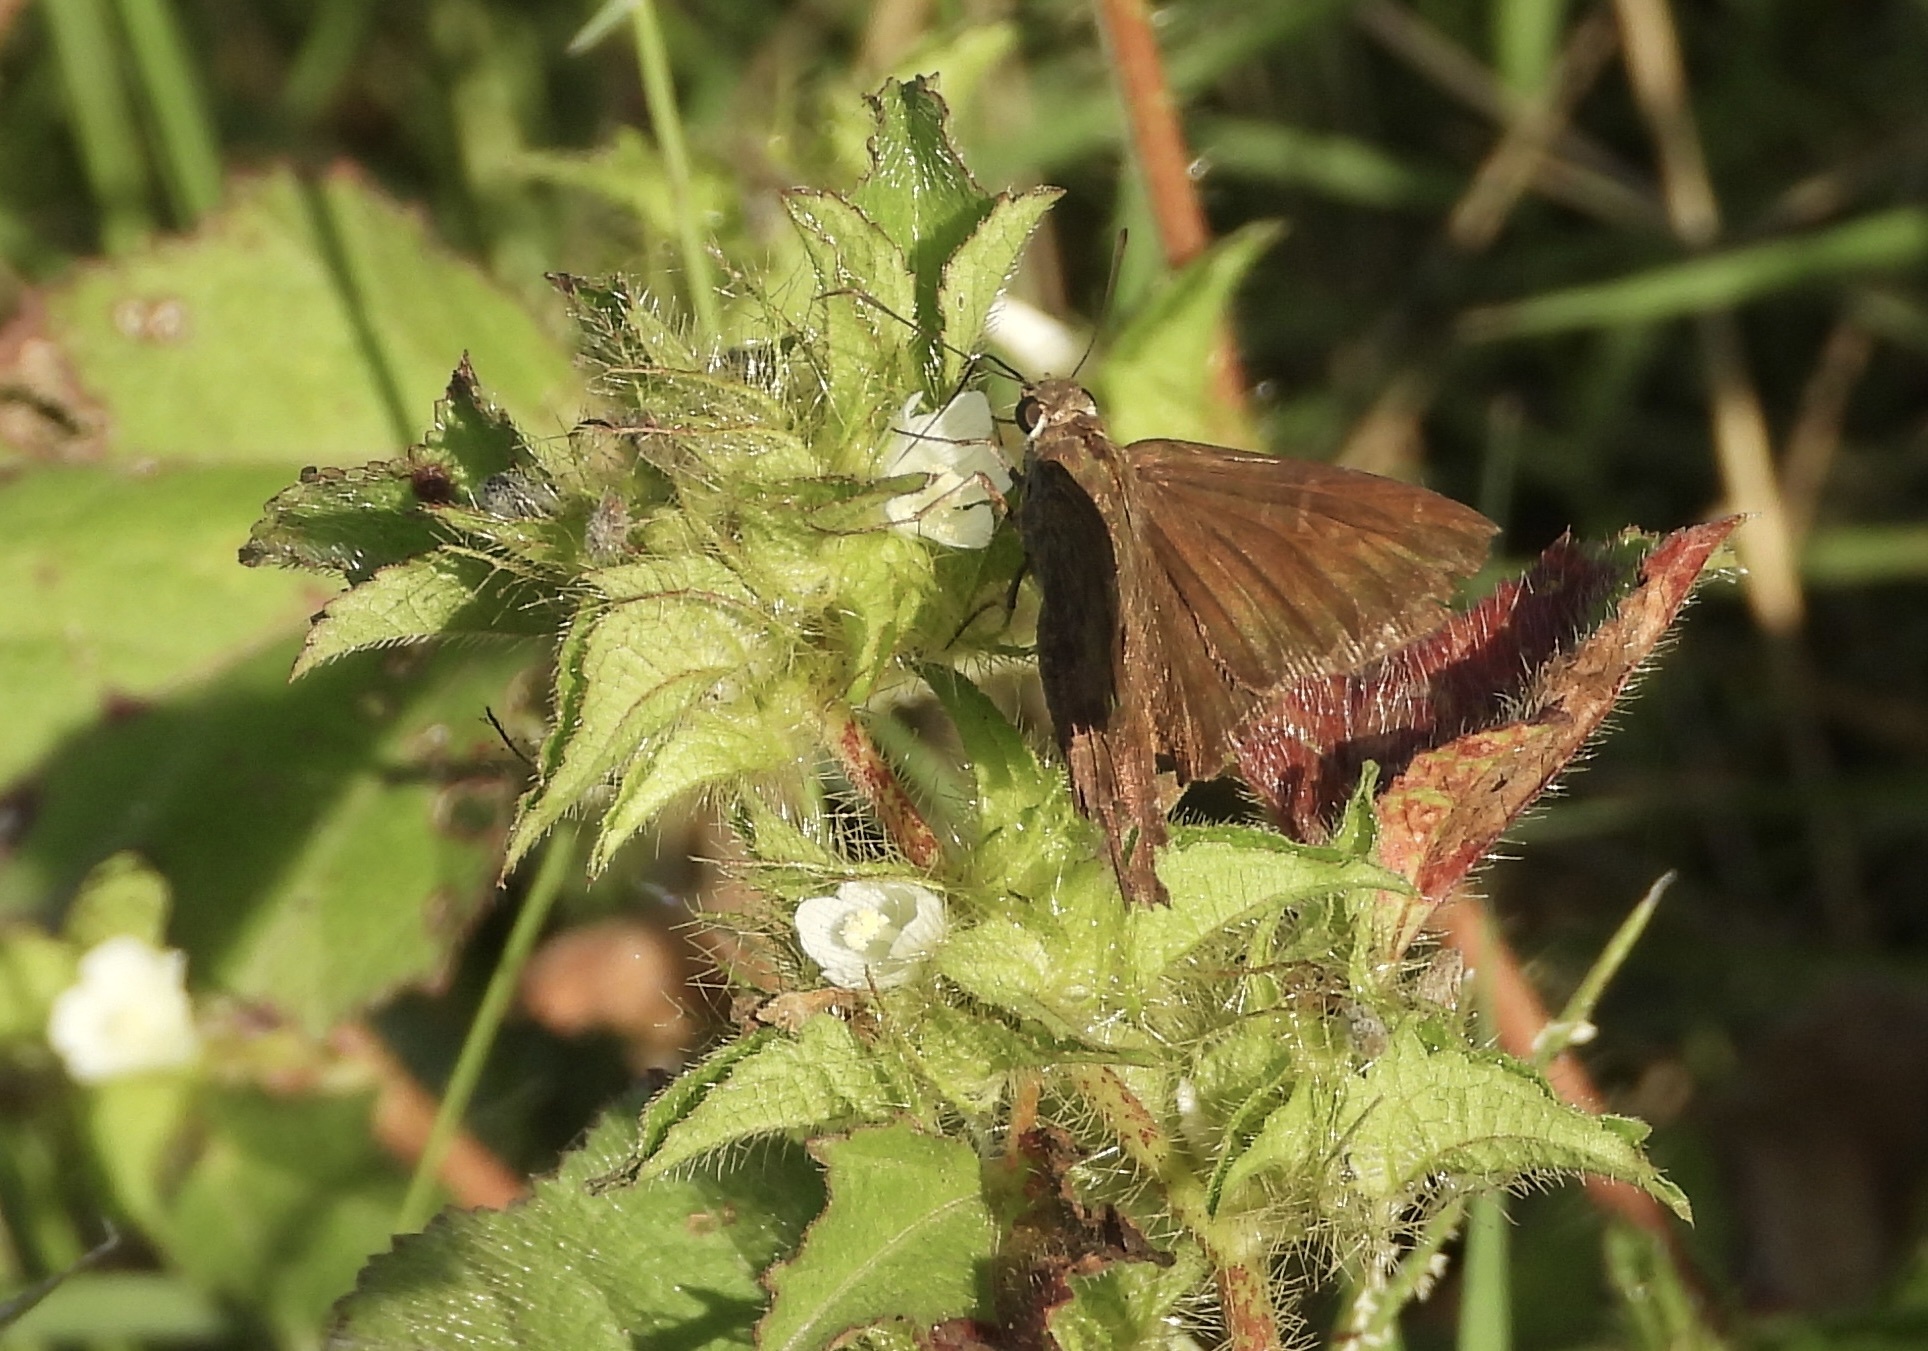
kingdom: Animalia
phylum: Arthropoda
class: Insecta
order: Lepidoptera
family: Hesperiidae
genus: Urbanus
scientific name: Urbanus procne
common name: Brown longtail
